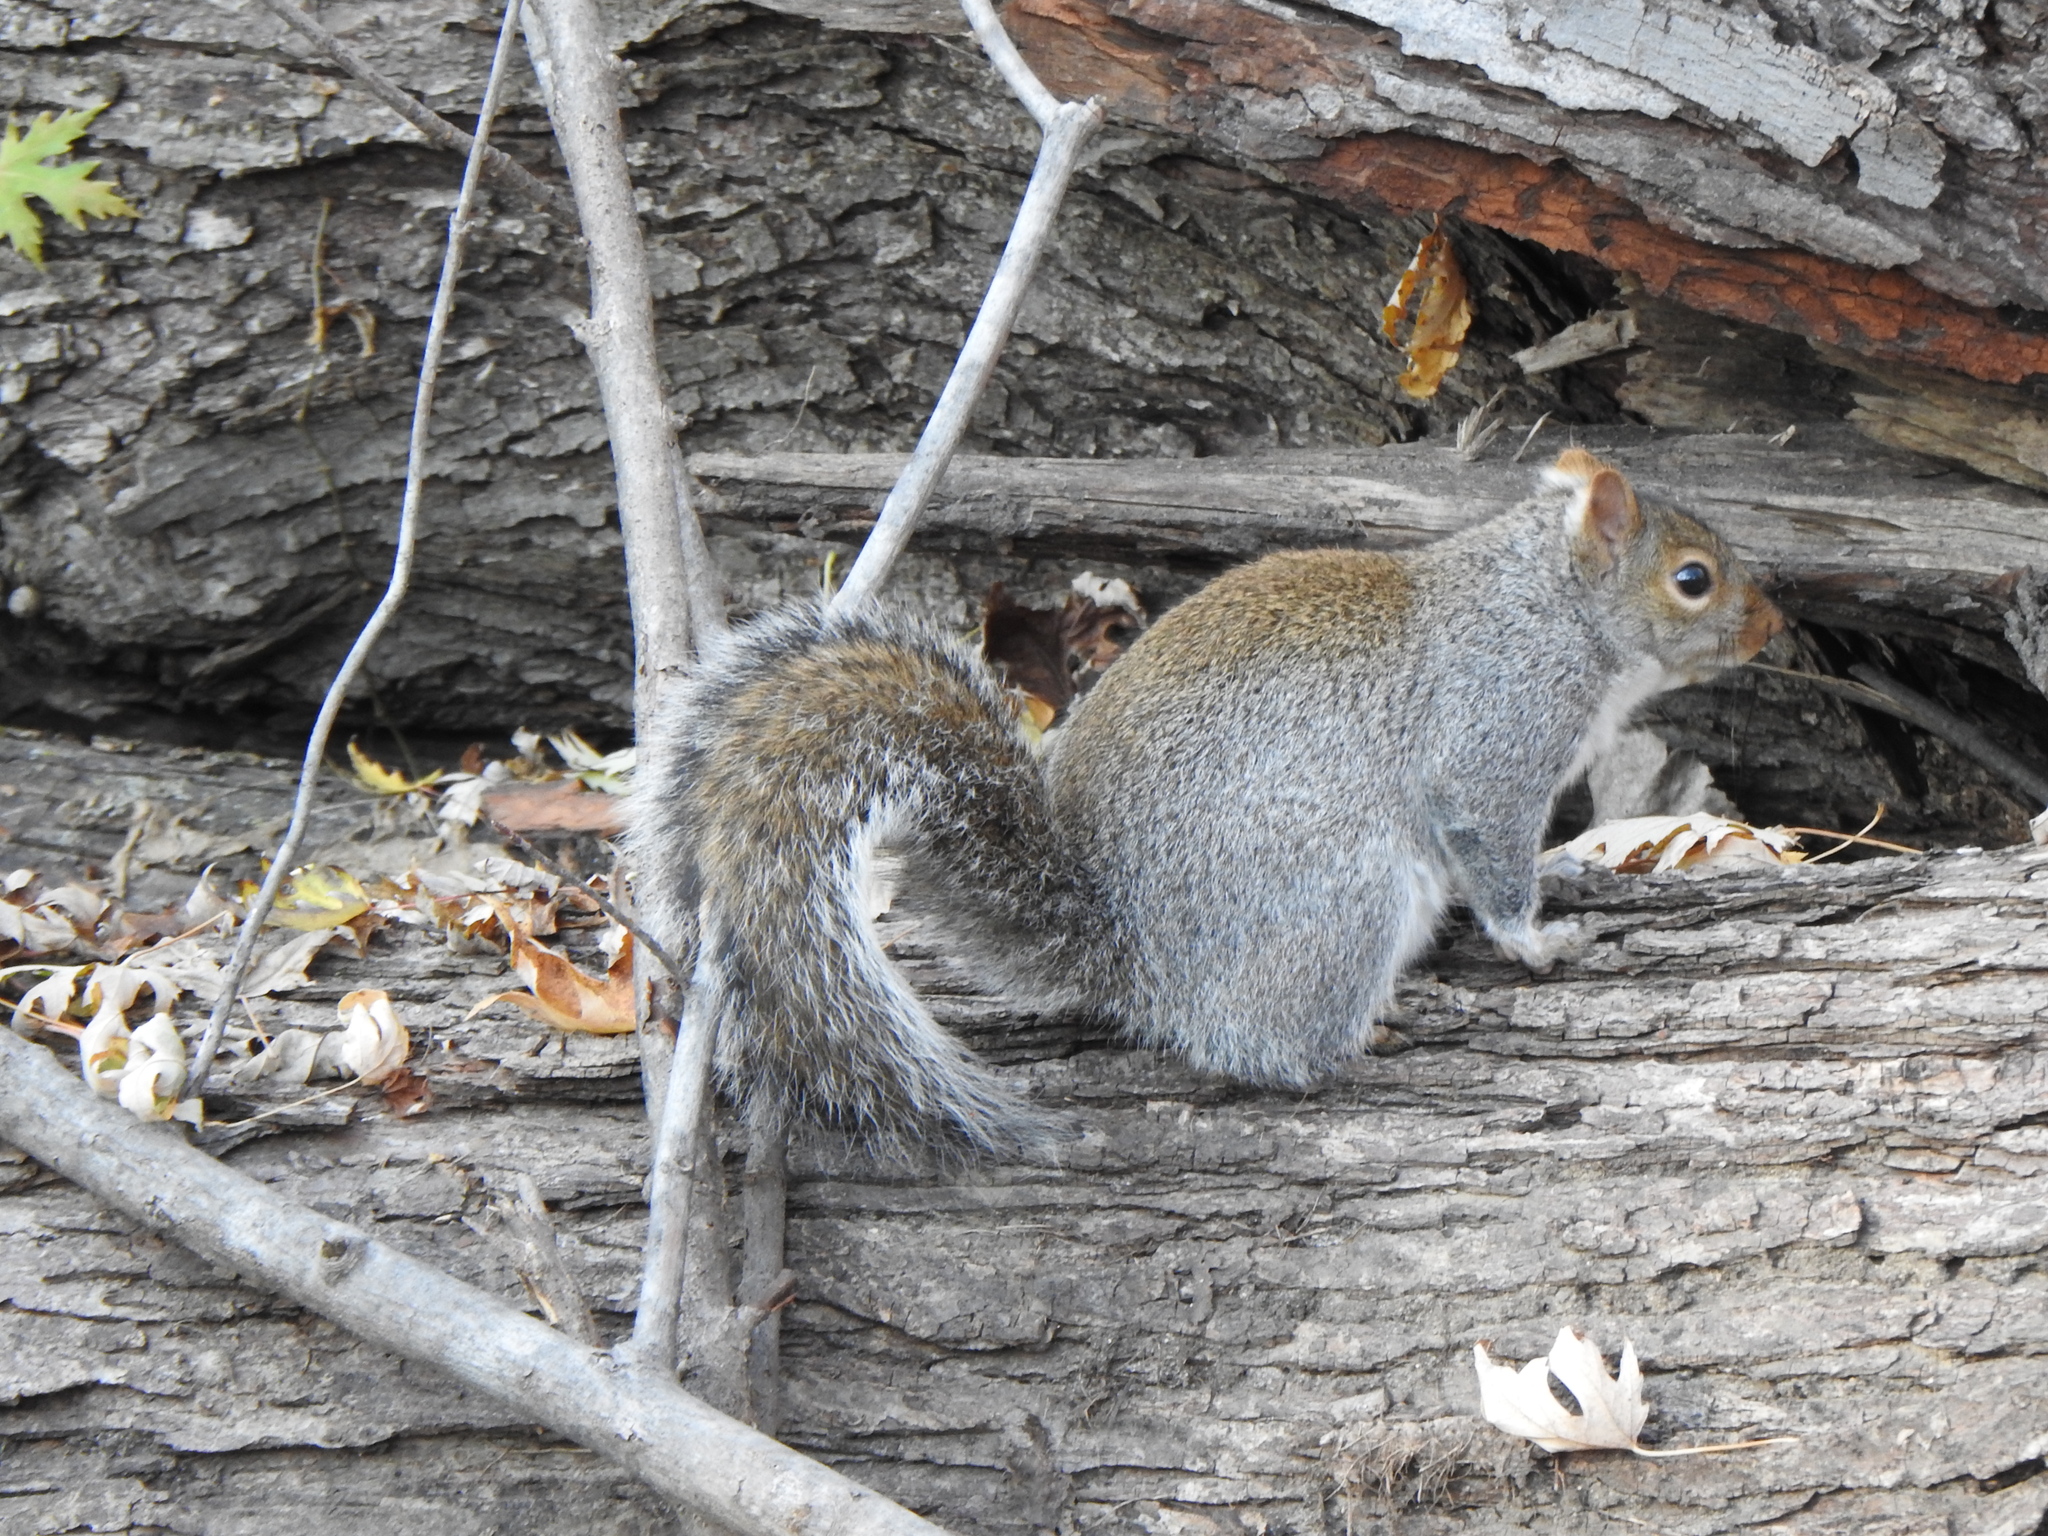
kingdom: Animalia
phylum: Chordata
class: Mammalia
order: Rodentia
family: Sciuridae
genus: Sciurus
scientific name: Sciurus carolinensis
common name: Eastern gray squirrel
